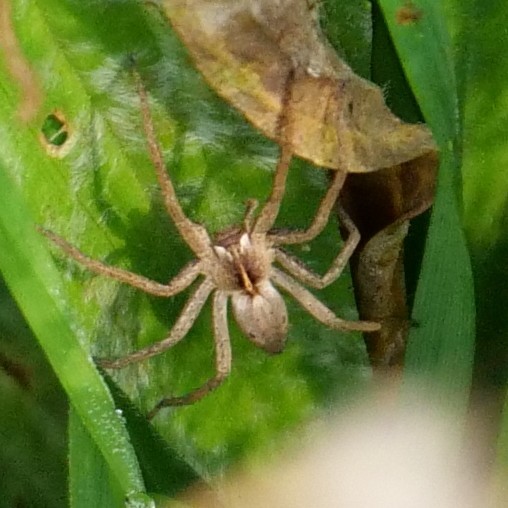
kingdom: Animalia
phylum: Arthropoda
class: Arachnida
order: Araneae
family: Pisauridae
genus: Pisaura
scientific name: Pisaura mirabilis
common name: Tent spider
